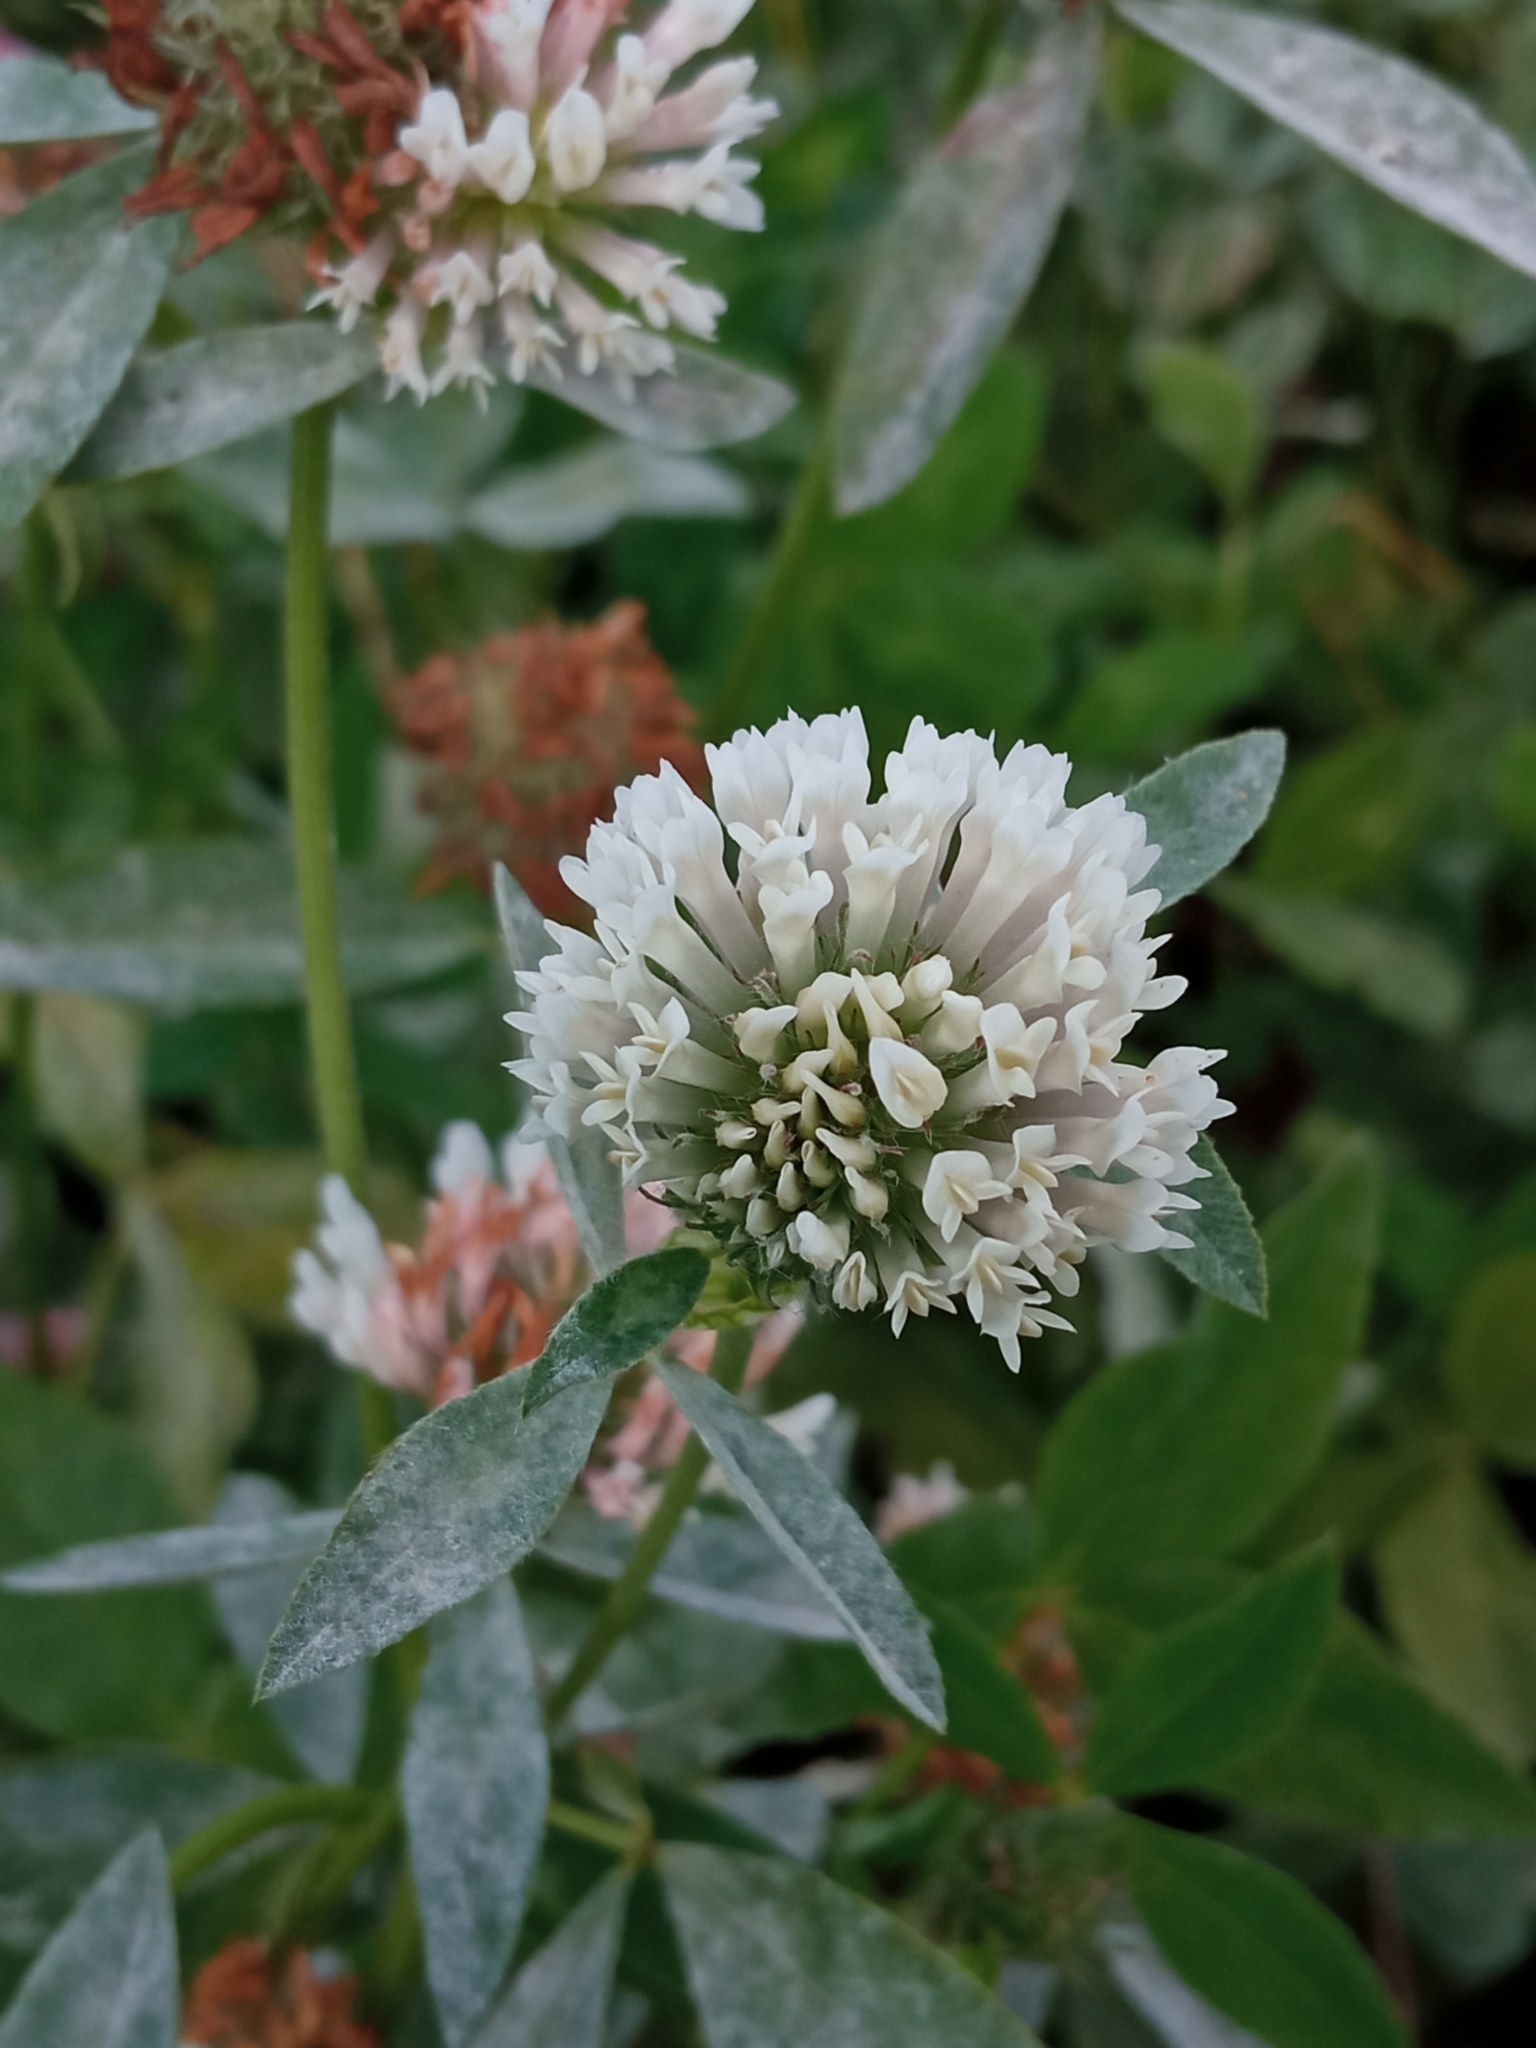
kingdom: Plantae
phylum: Tracheophyta
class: Magnoliopsida
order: Fabales
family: Fabaceae
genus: Trifolium
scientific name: Trifolium pratense
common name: Red clover
